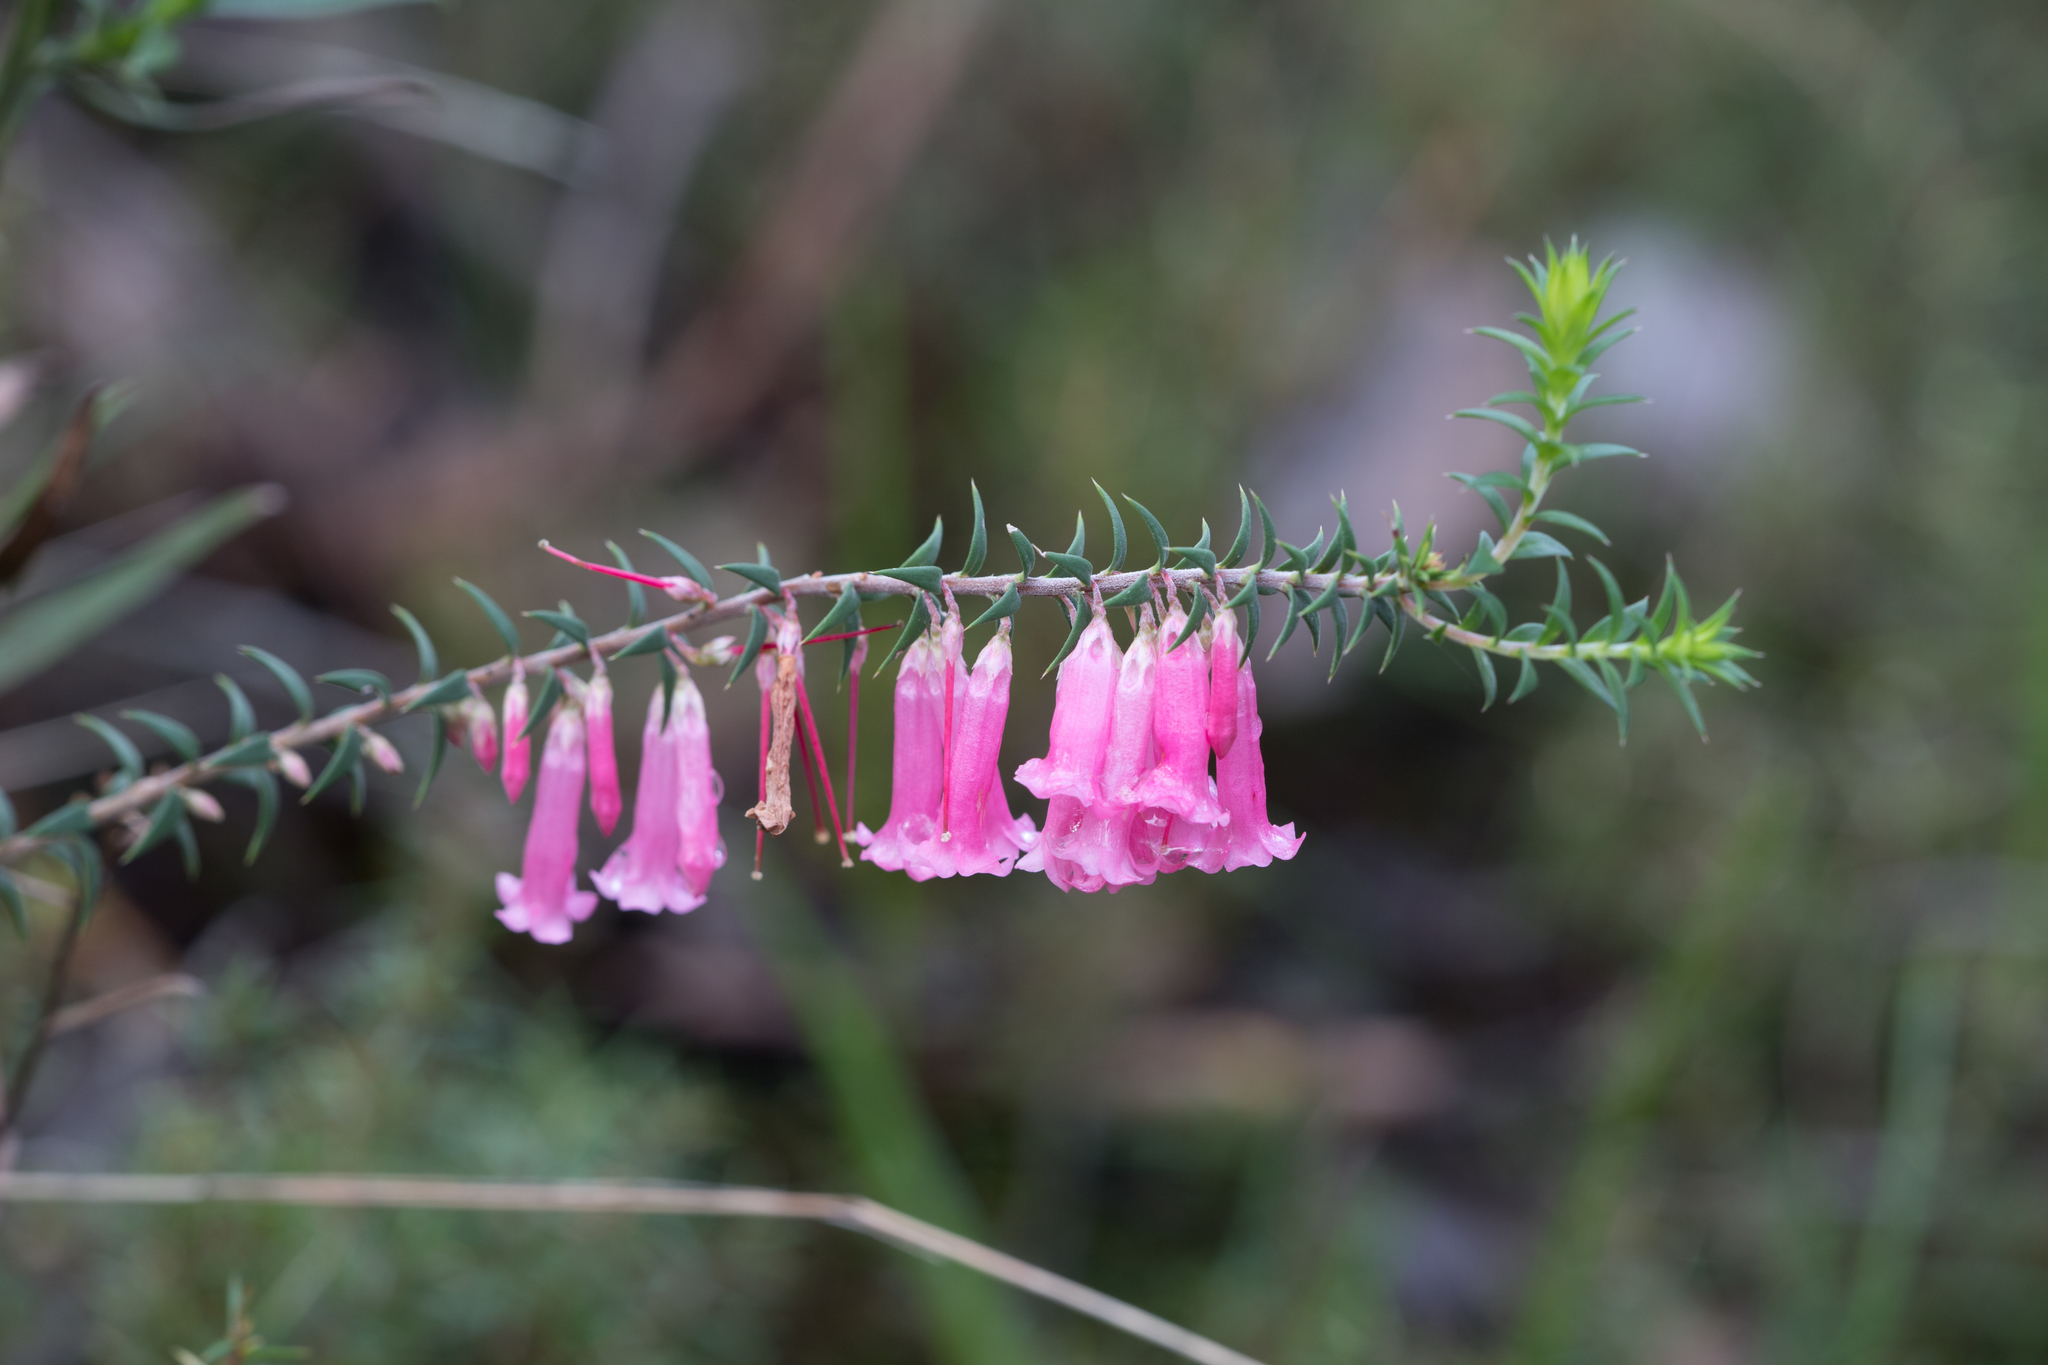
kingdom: Plantae
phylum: Tracheophyta
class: Magnoliopsida
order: Ericales
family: Ericaceae
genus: Epacris
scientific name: Epacris impressa
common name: Common-heath
